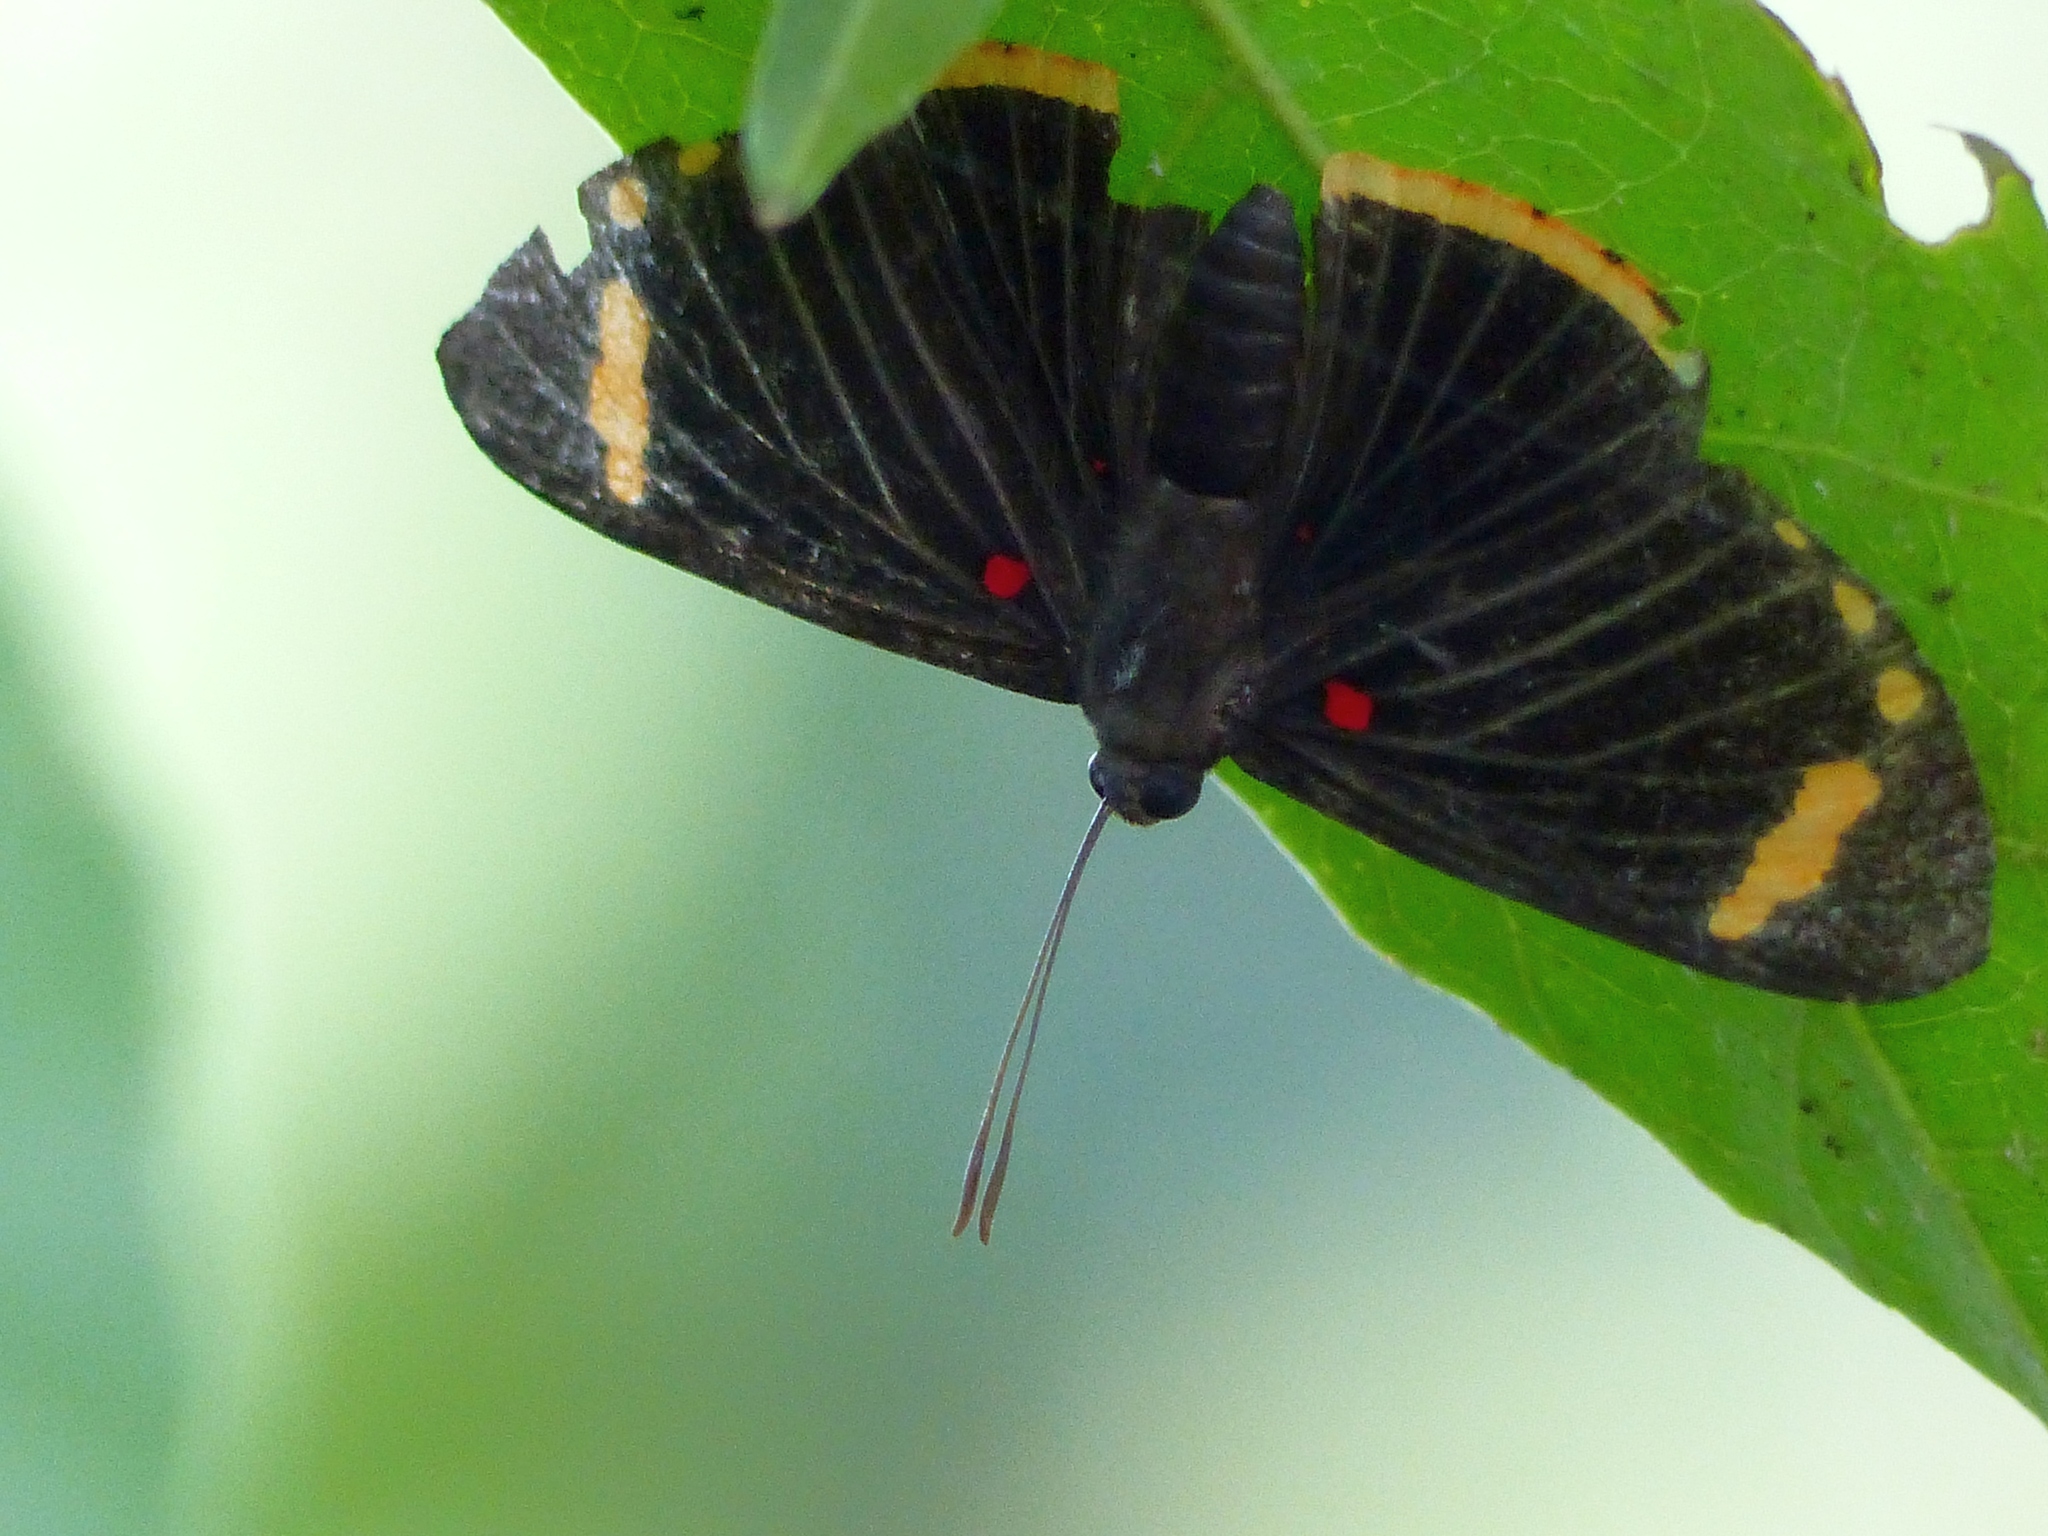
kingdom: Animalia
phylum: Arthropoda
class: Insecta
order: Lepidoptera
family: Lycaenidae
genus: Melanis
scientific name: Melanis xenia
